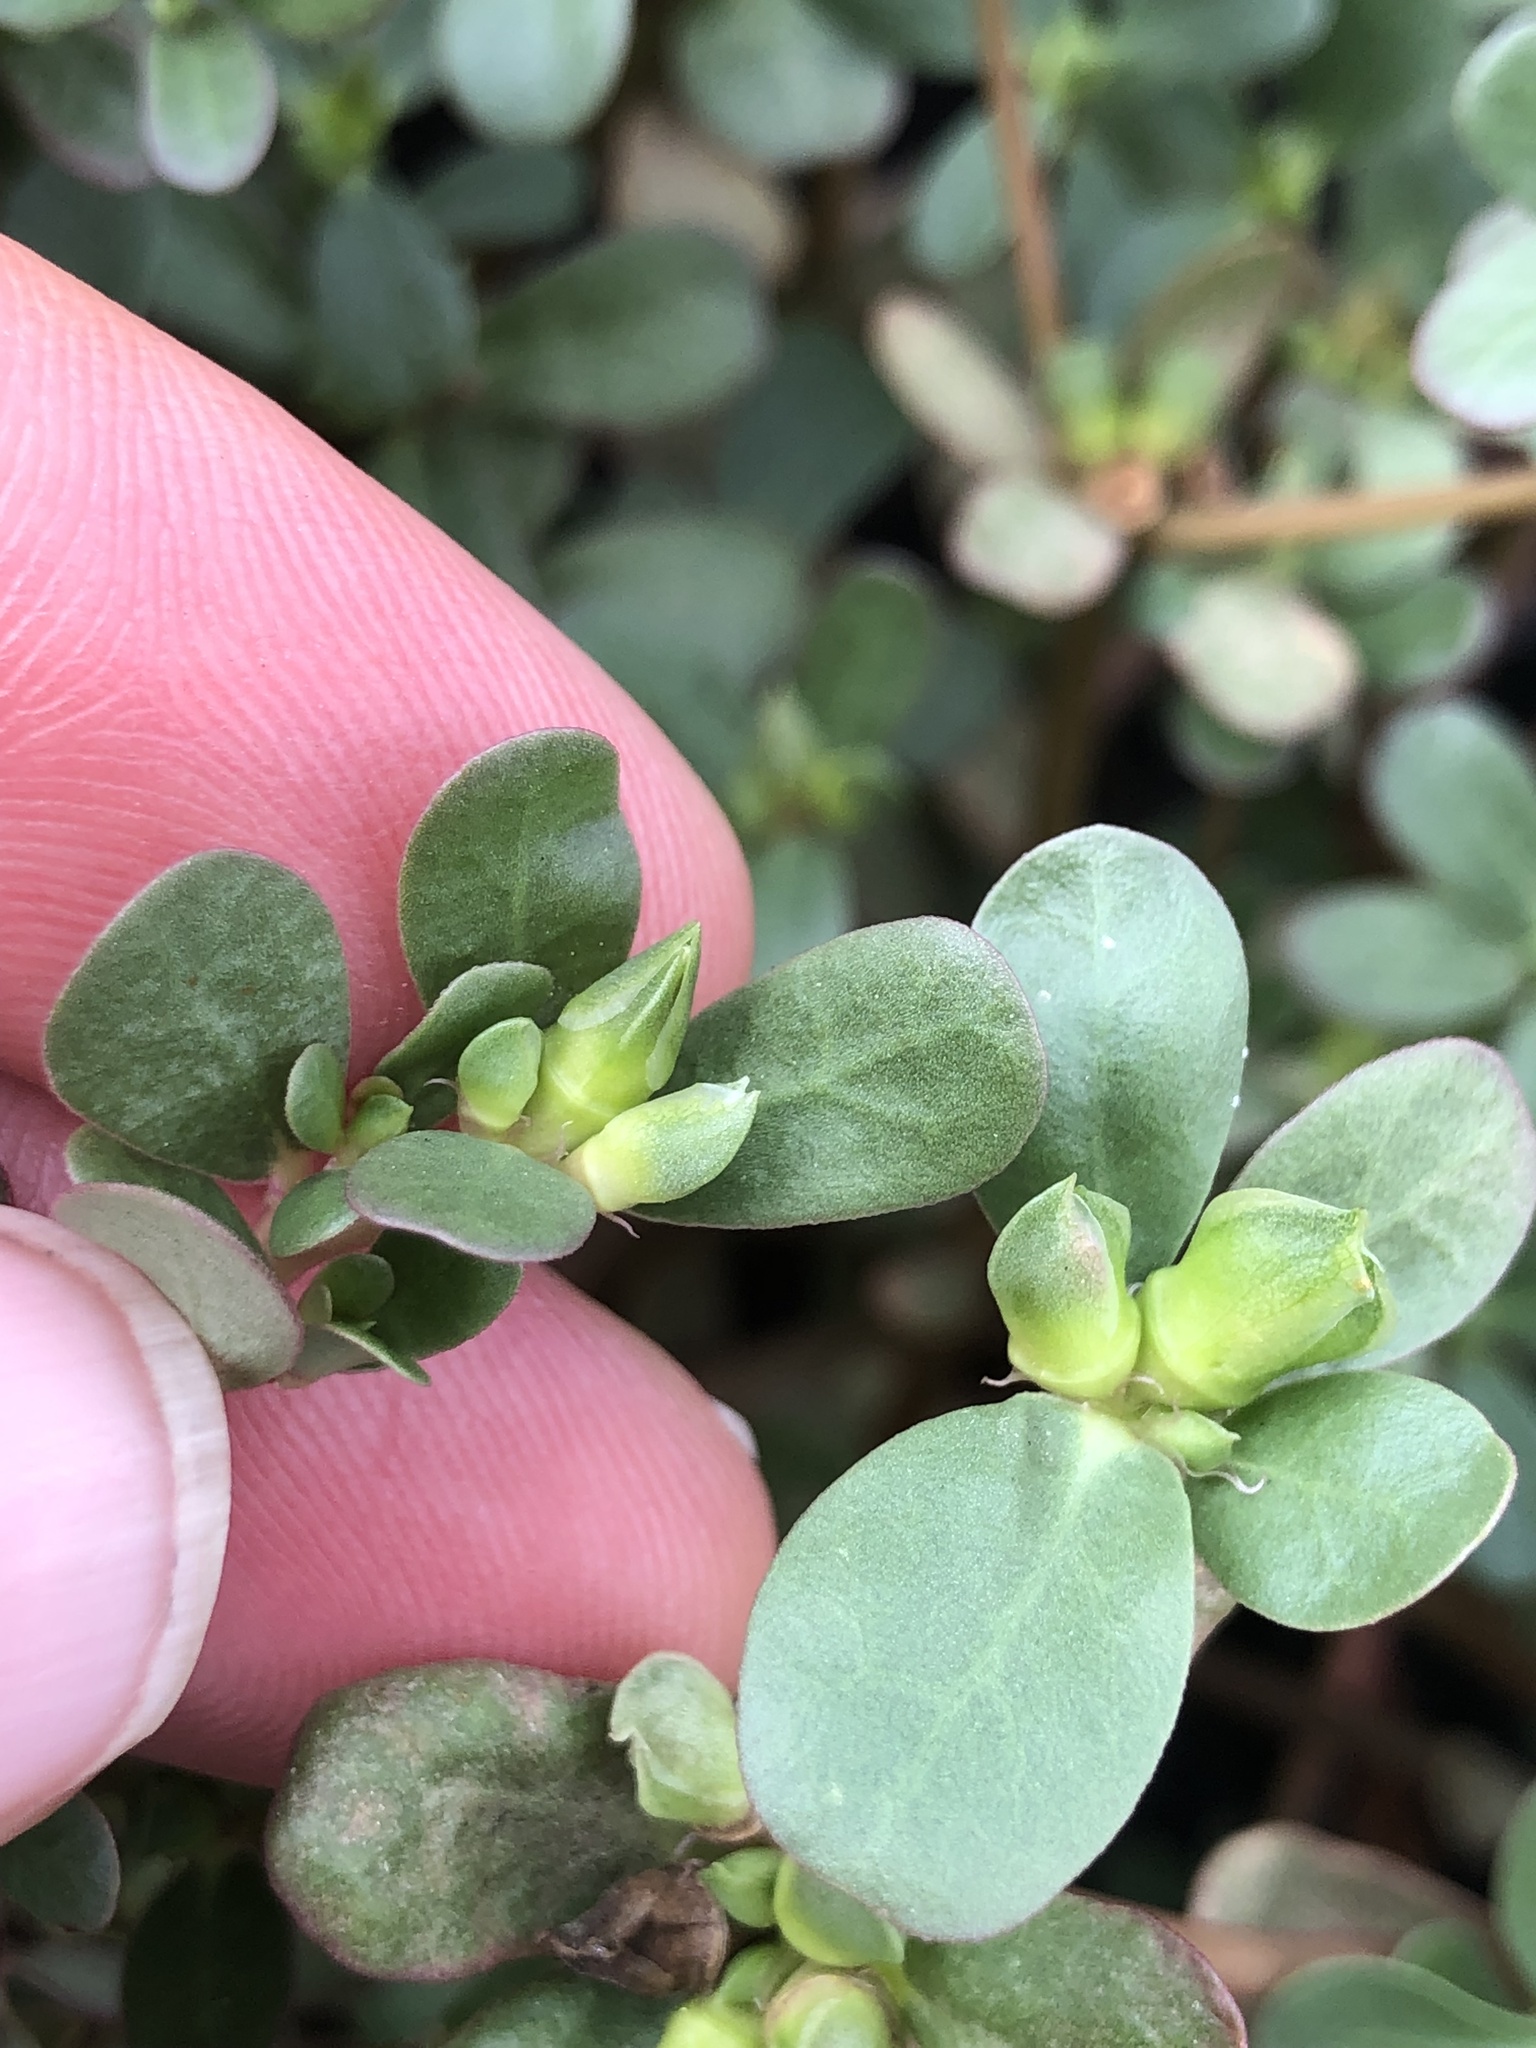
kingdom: Plantae
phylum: Tracheophyta
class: Magnoliopsida
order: Caryophyllales
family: Portulacaceae
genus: Portulaca
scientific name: Portulaca oleracea
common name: Common purslane
